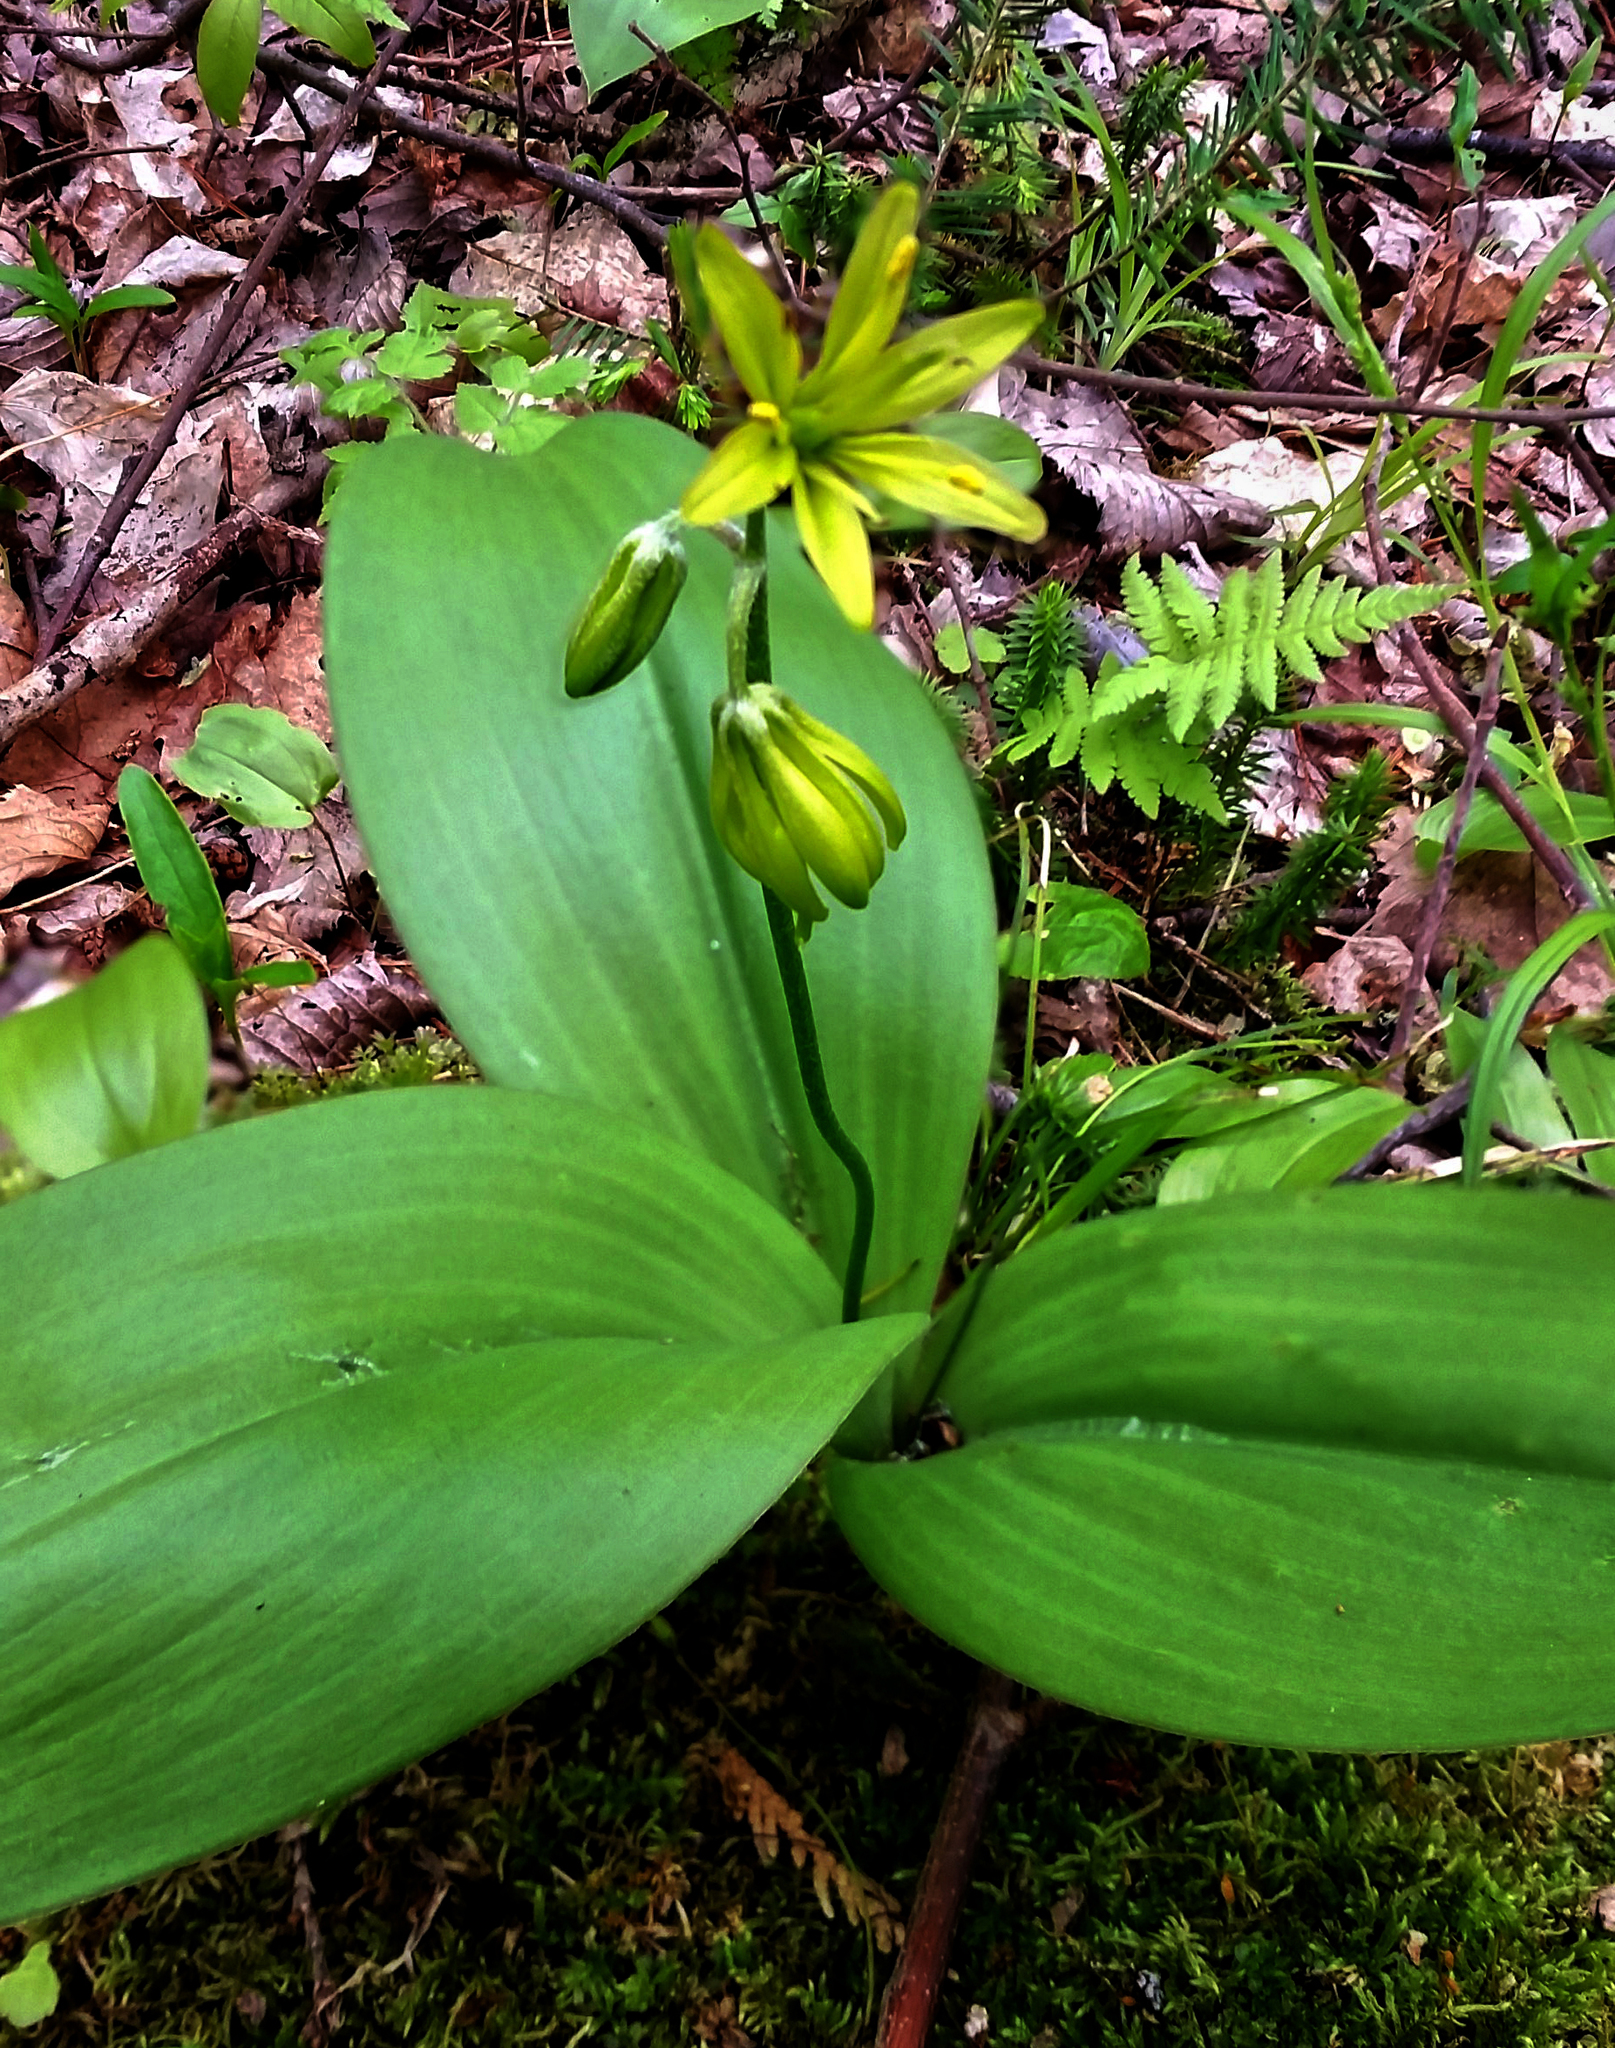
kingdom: Plantae
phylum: Tracheophyta
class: Liliopsida
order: Liliales
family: Liliaceae
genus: Clintonia
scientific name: Clintonia borealis
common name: Yellow clintonia
